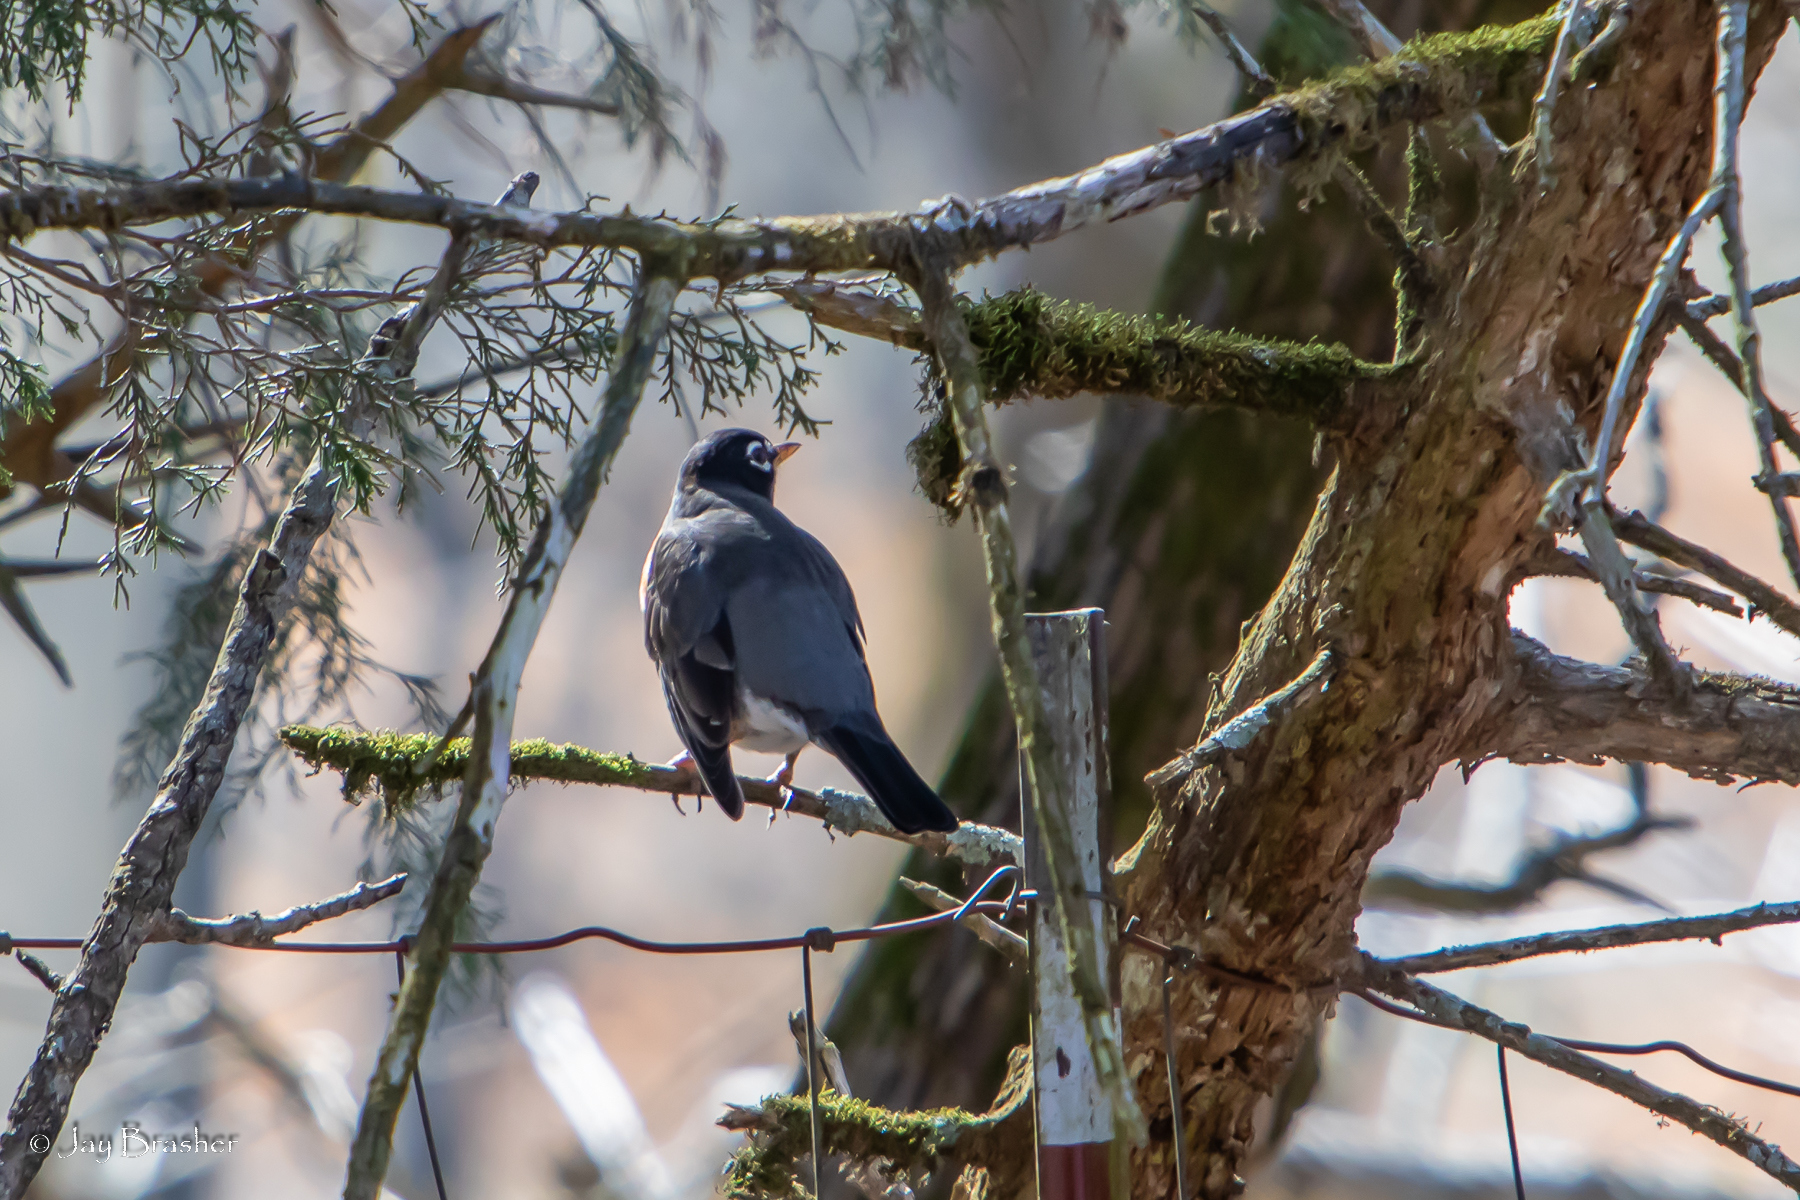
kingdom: Animalia
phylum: Chordata
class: Aves
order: Passeriformes
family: Turdidae
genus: Turdus
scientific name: Turdus migratorius
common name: American robin
